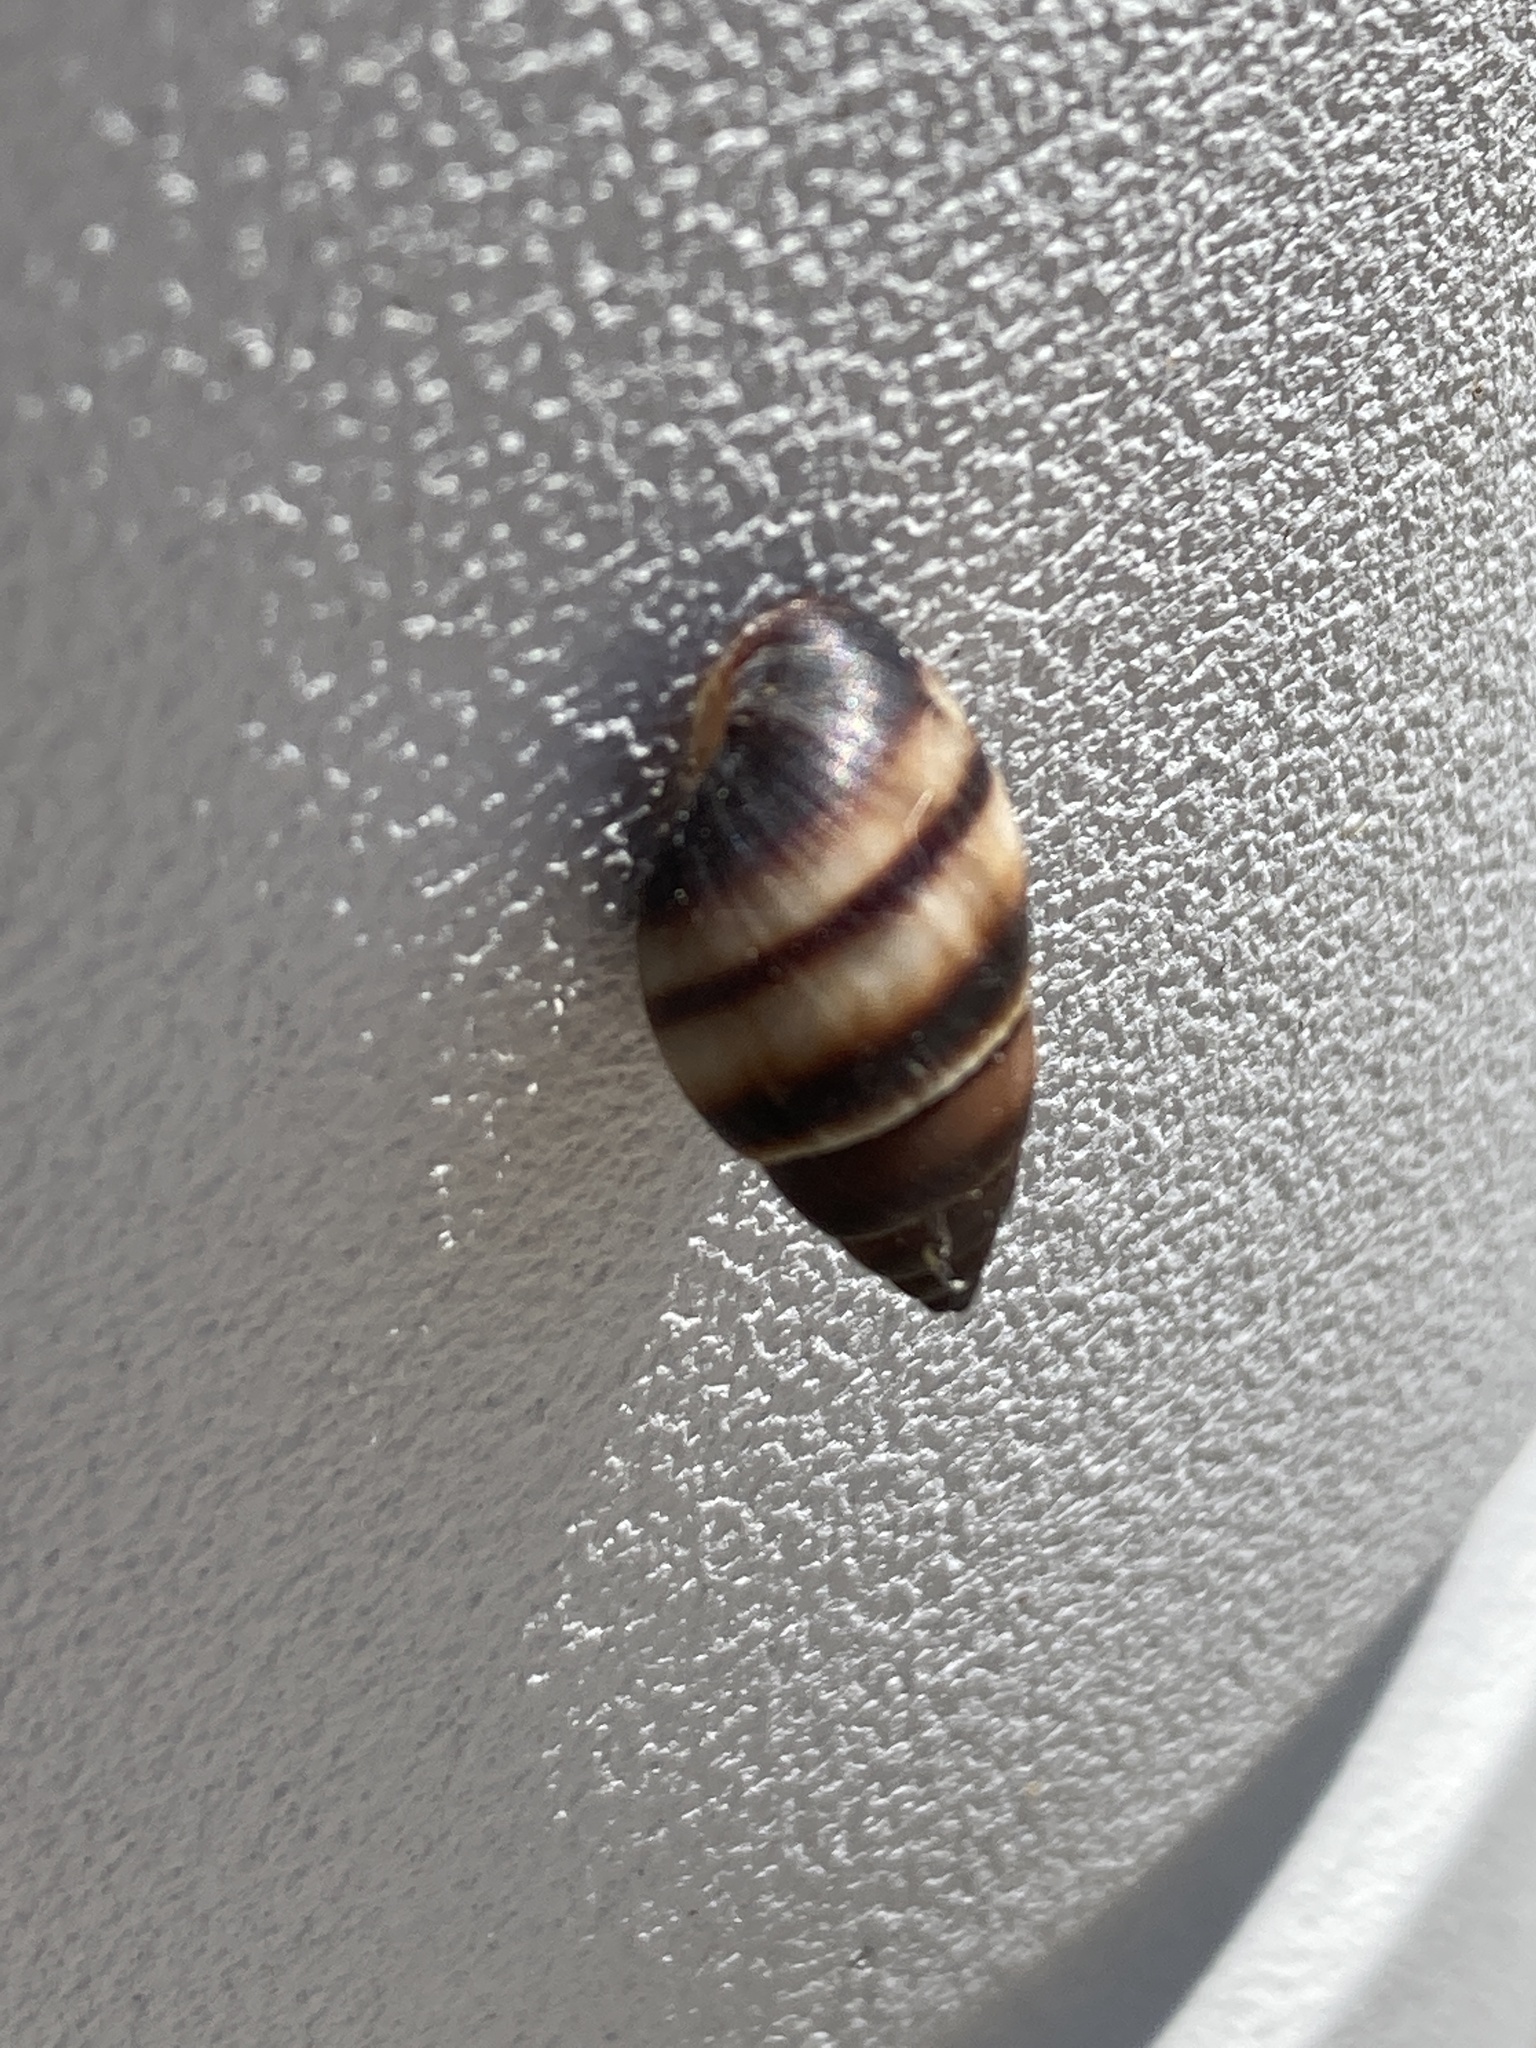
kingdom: Animalia
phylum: Mollusca
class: Gastropoda
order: Stylommatophora
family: Bulimulidae
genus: Bulimulus
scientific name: Bulimulus guadalupensis
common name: West indian bulimulus
